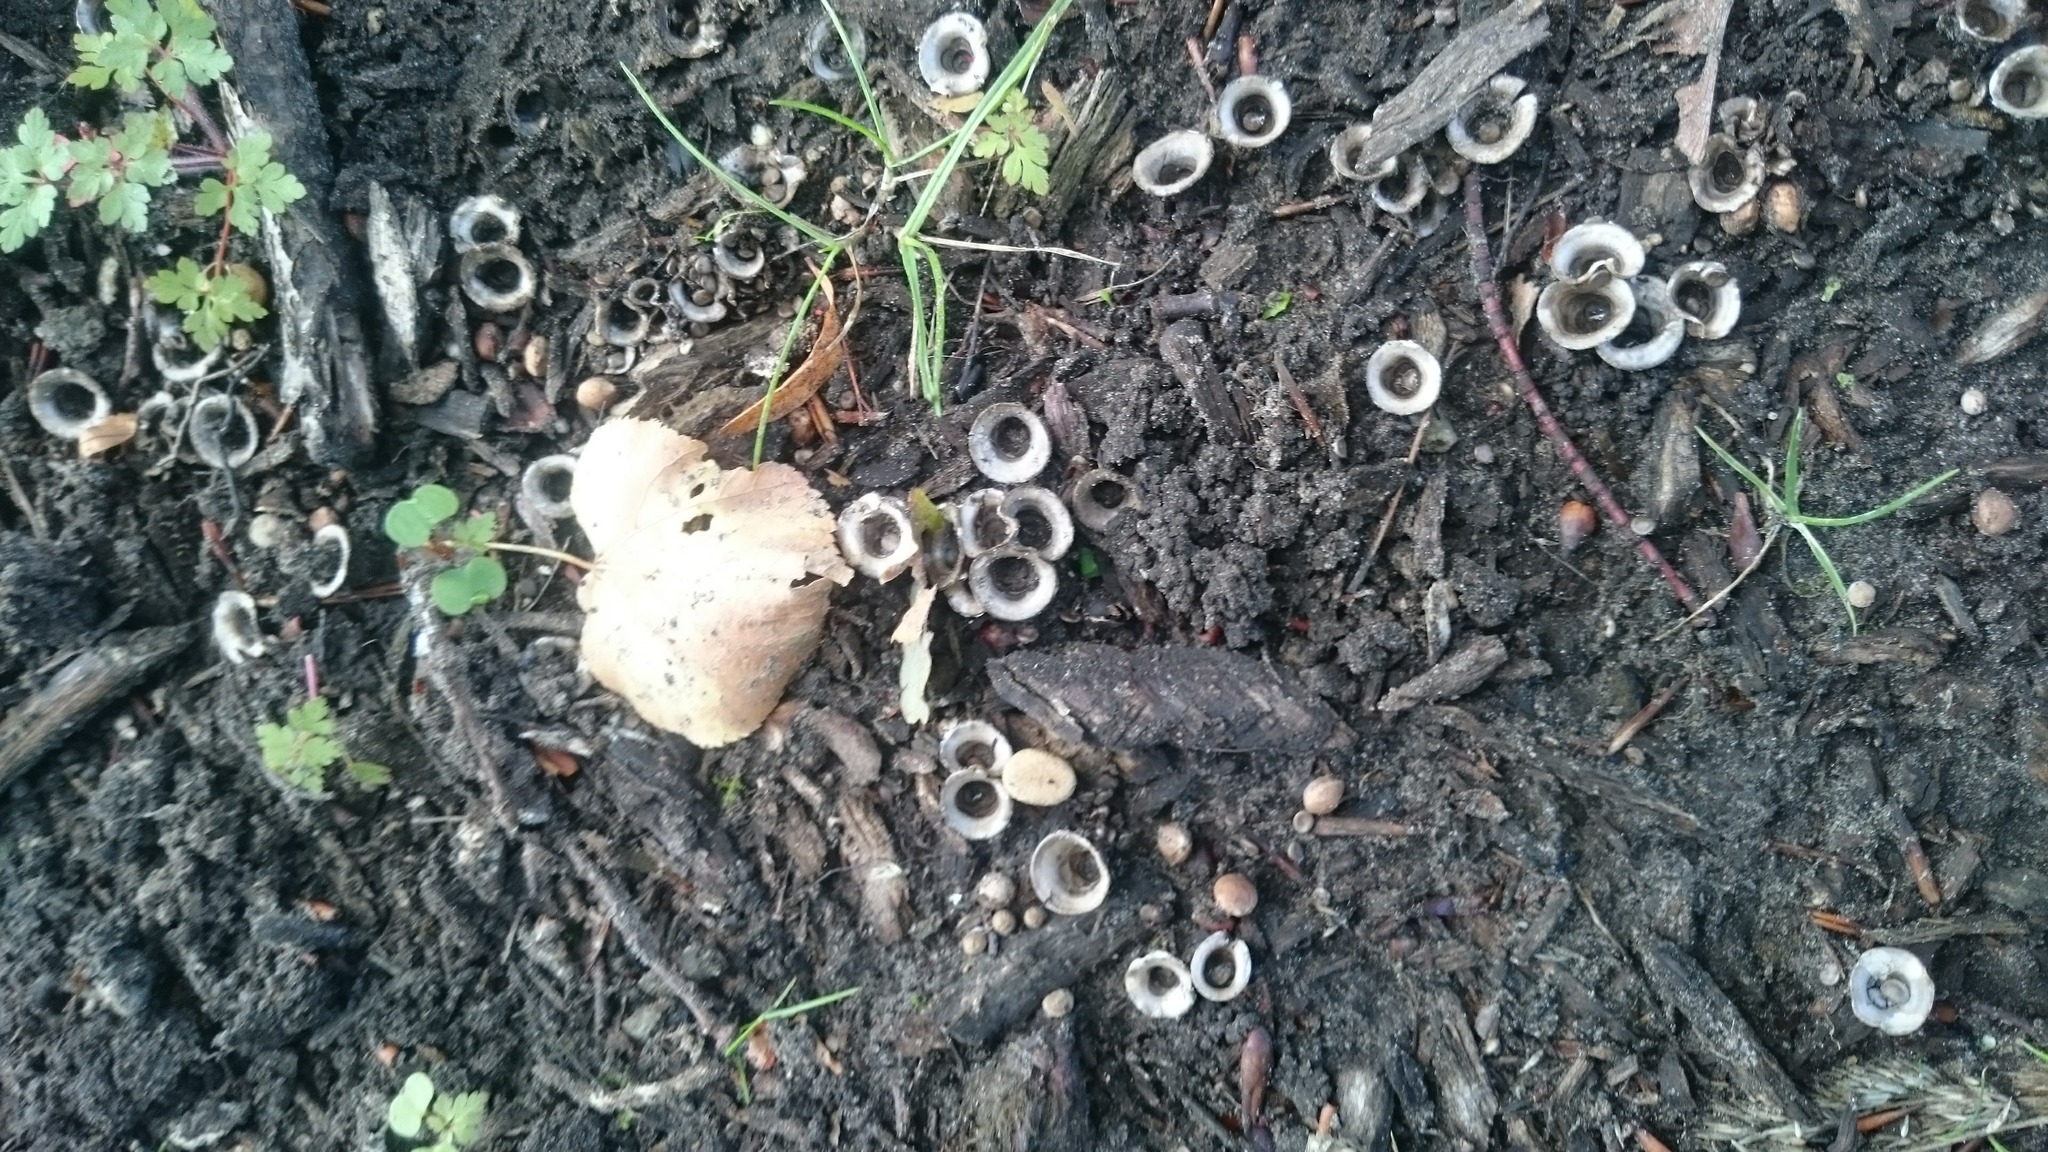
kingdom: Fungi
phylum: Basidiomycota
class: Agaricomycetes
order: Agaricales
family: Agaricaceae
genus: Cyathus
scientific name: Cyathus olla
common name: Field bird's nest
